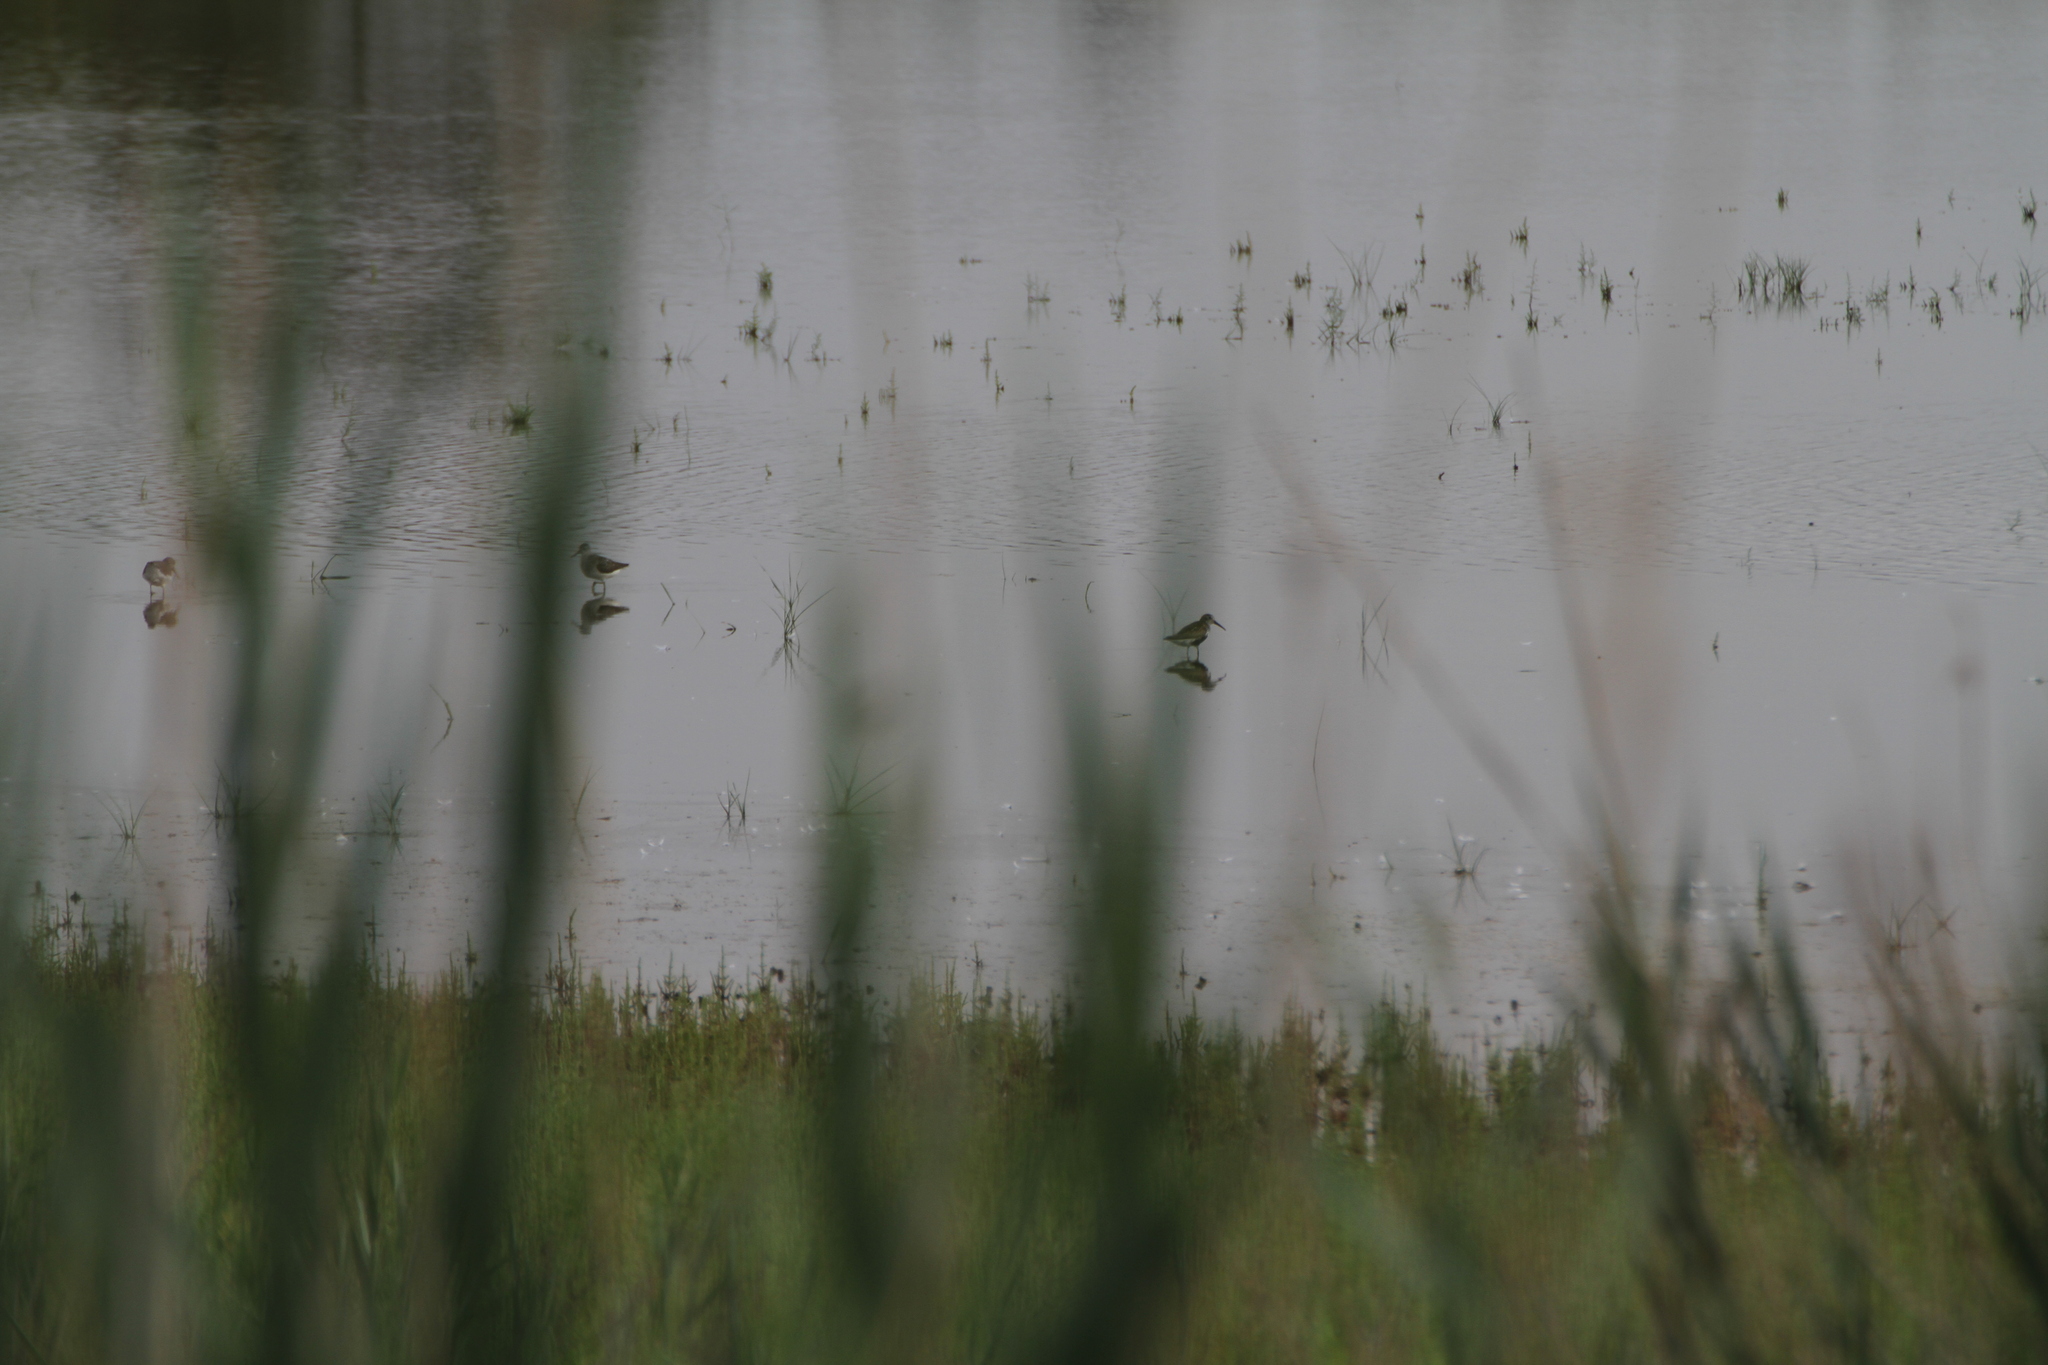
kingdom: Animalia
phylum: Chordata
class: Aves
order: Charadriiformes
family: Scolopacidae
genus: Calidris
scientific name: Calidris alpina
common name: Dunlin
